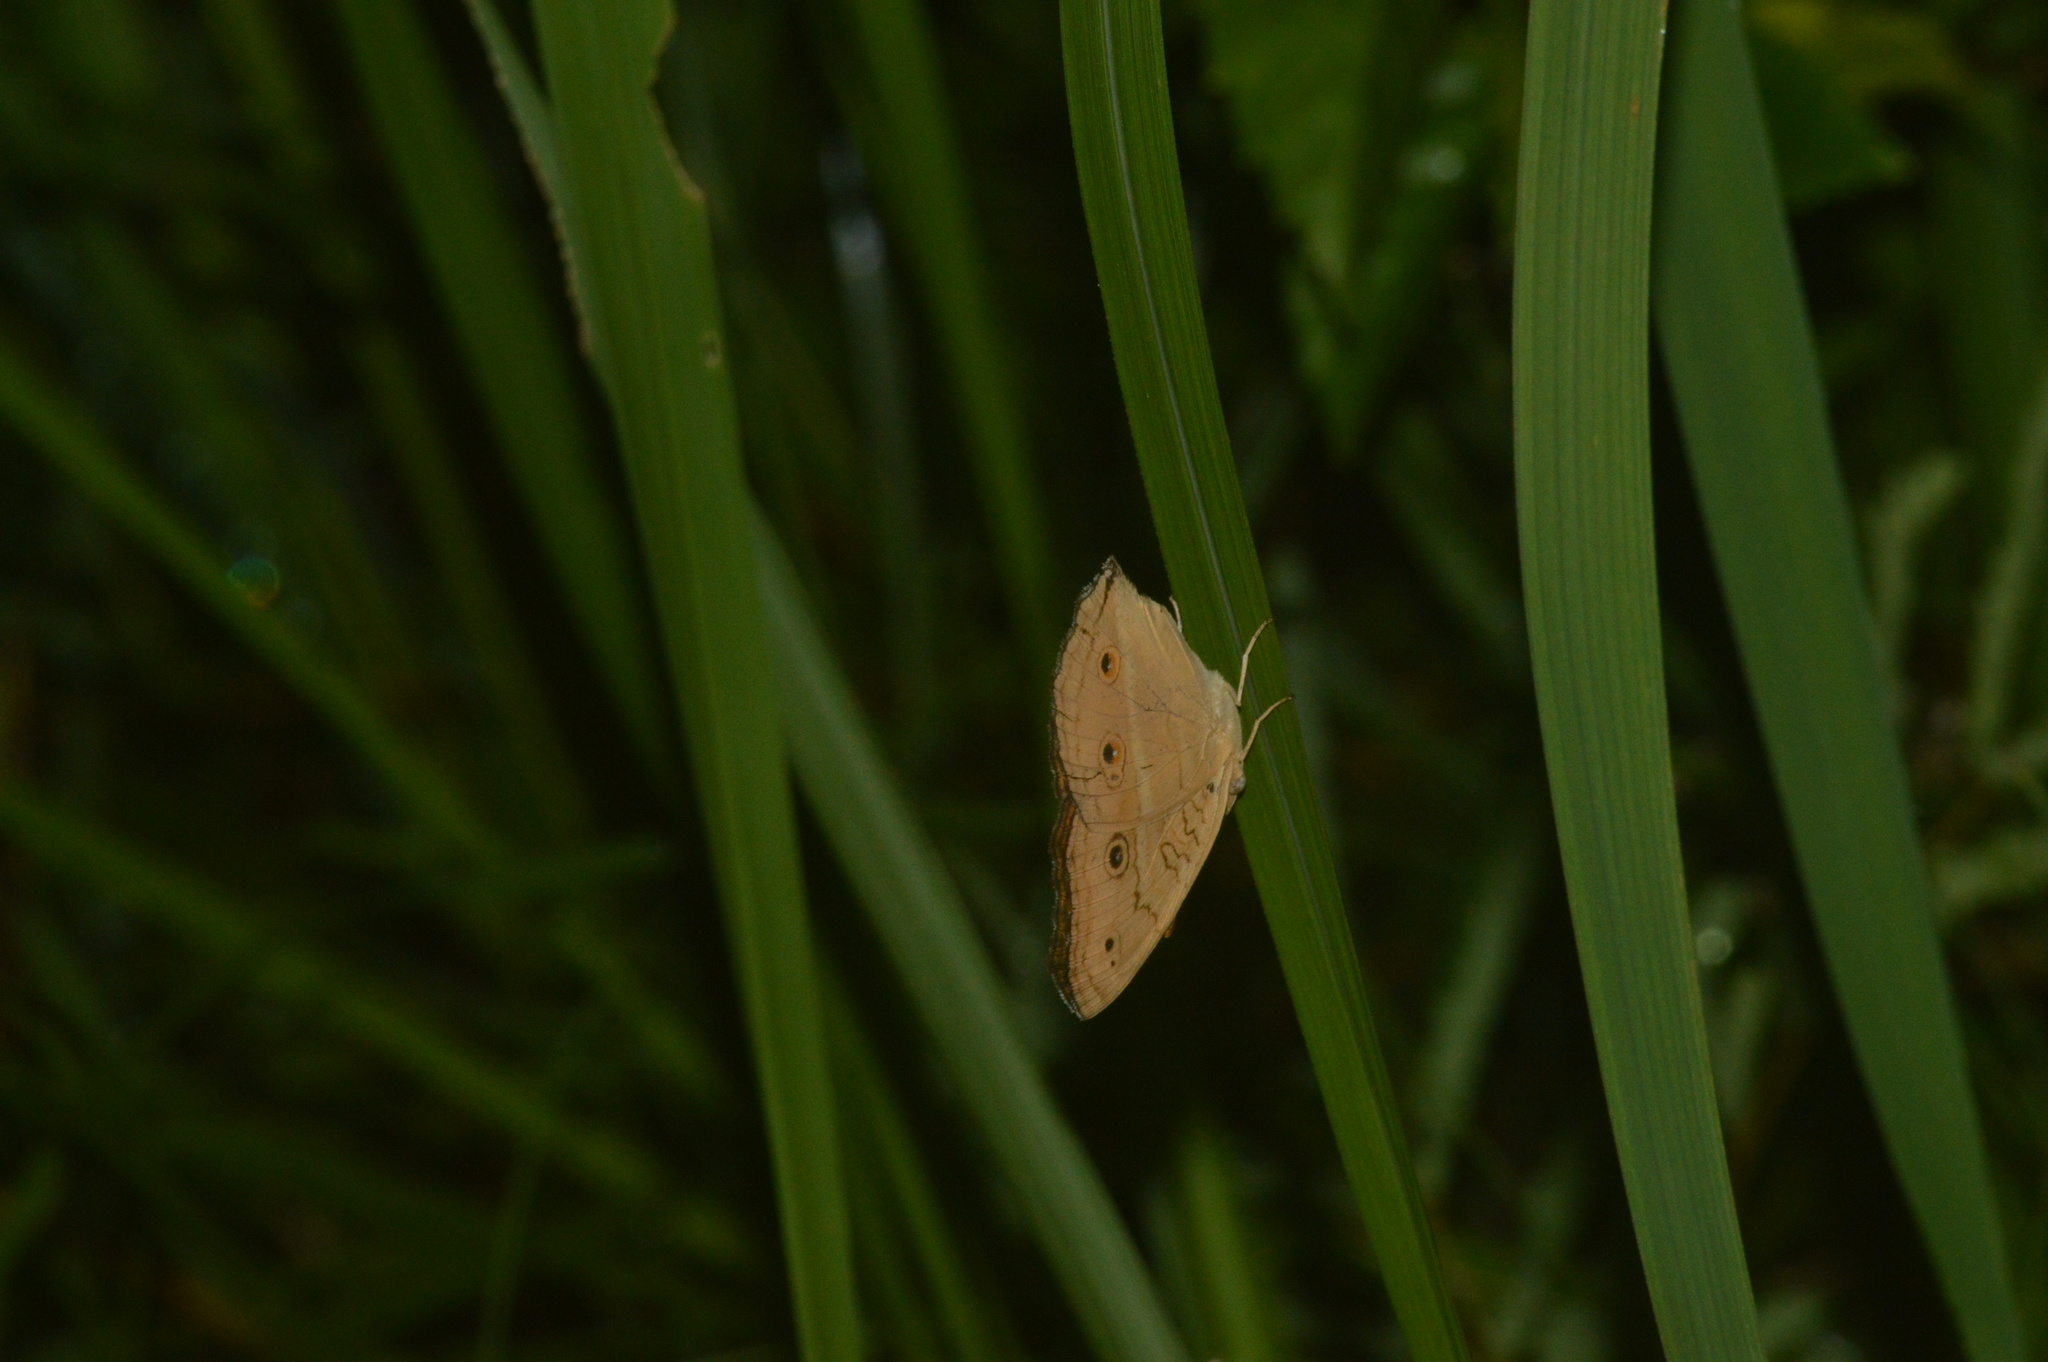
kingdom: Animalia
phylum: Arthropoda
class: Insecta
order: Lepidoptera
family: Nymphalidae
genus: Junonia
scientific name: Junonia almana
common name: Peacock pansy
